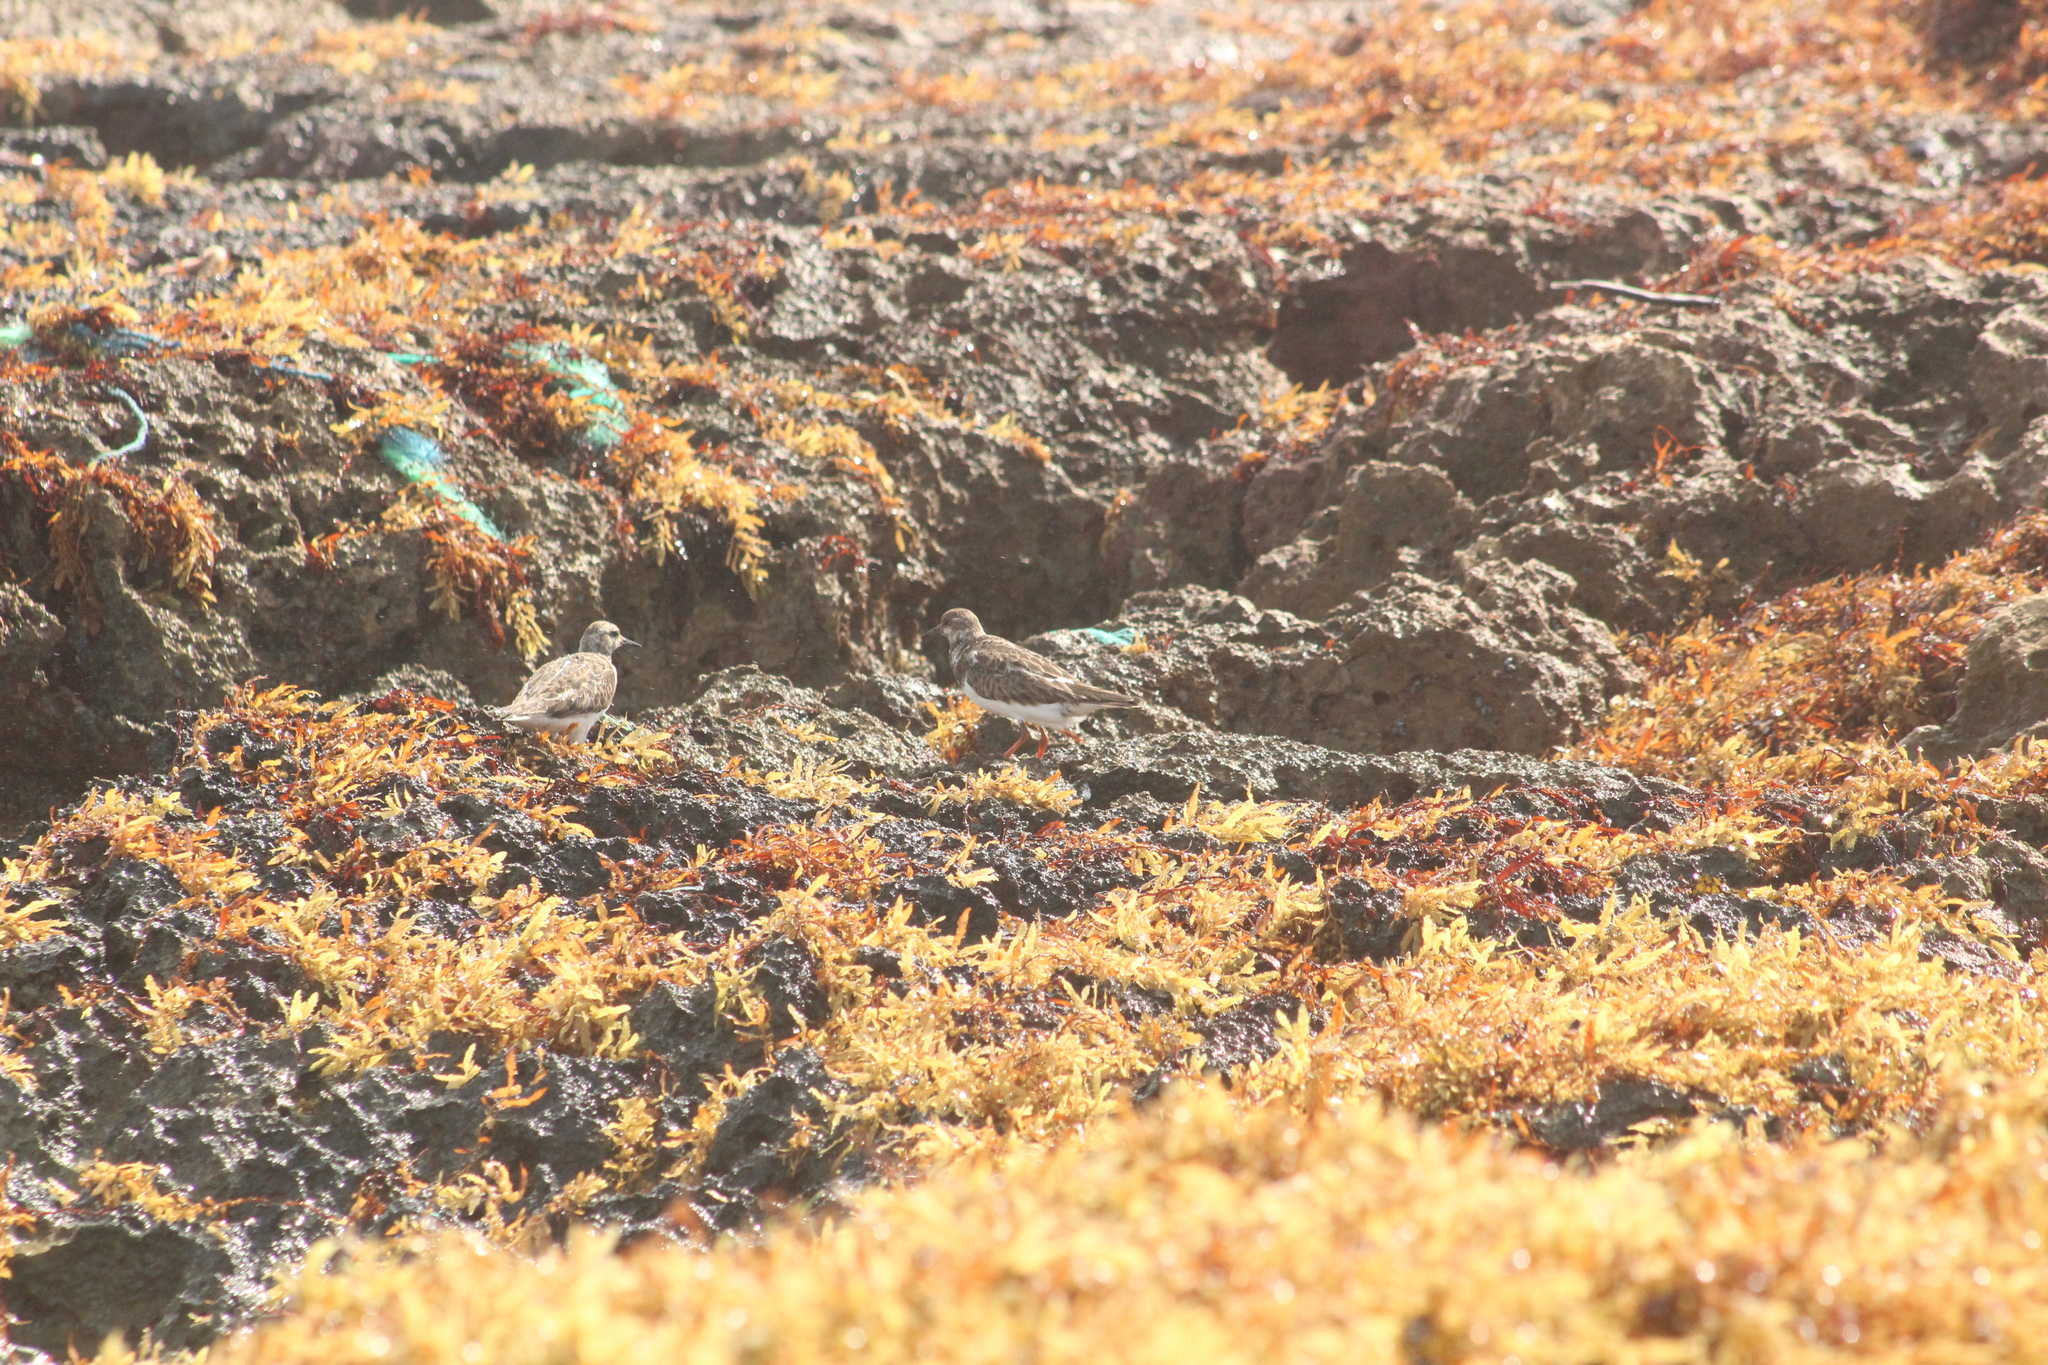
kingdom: Animalia
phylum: Chordata
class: Aves
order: Charadriiformes
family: Scolopacidae
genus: Arenaria
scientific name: Arenaria interpres
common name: Ruddy turnstone
